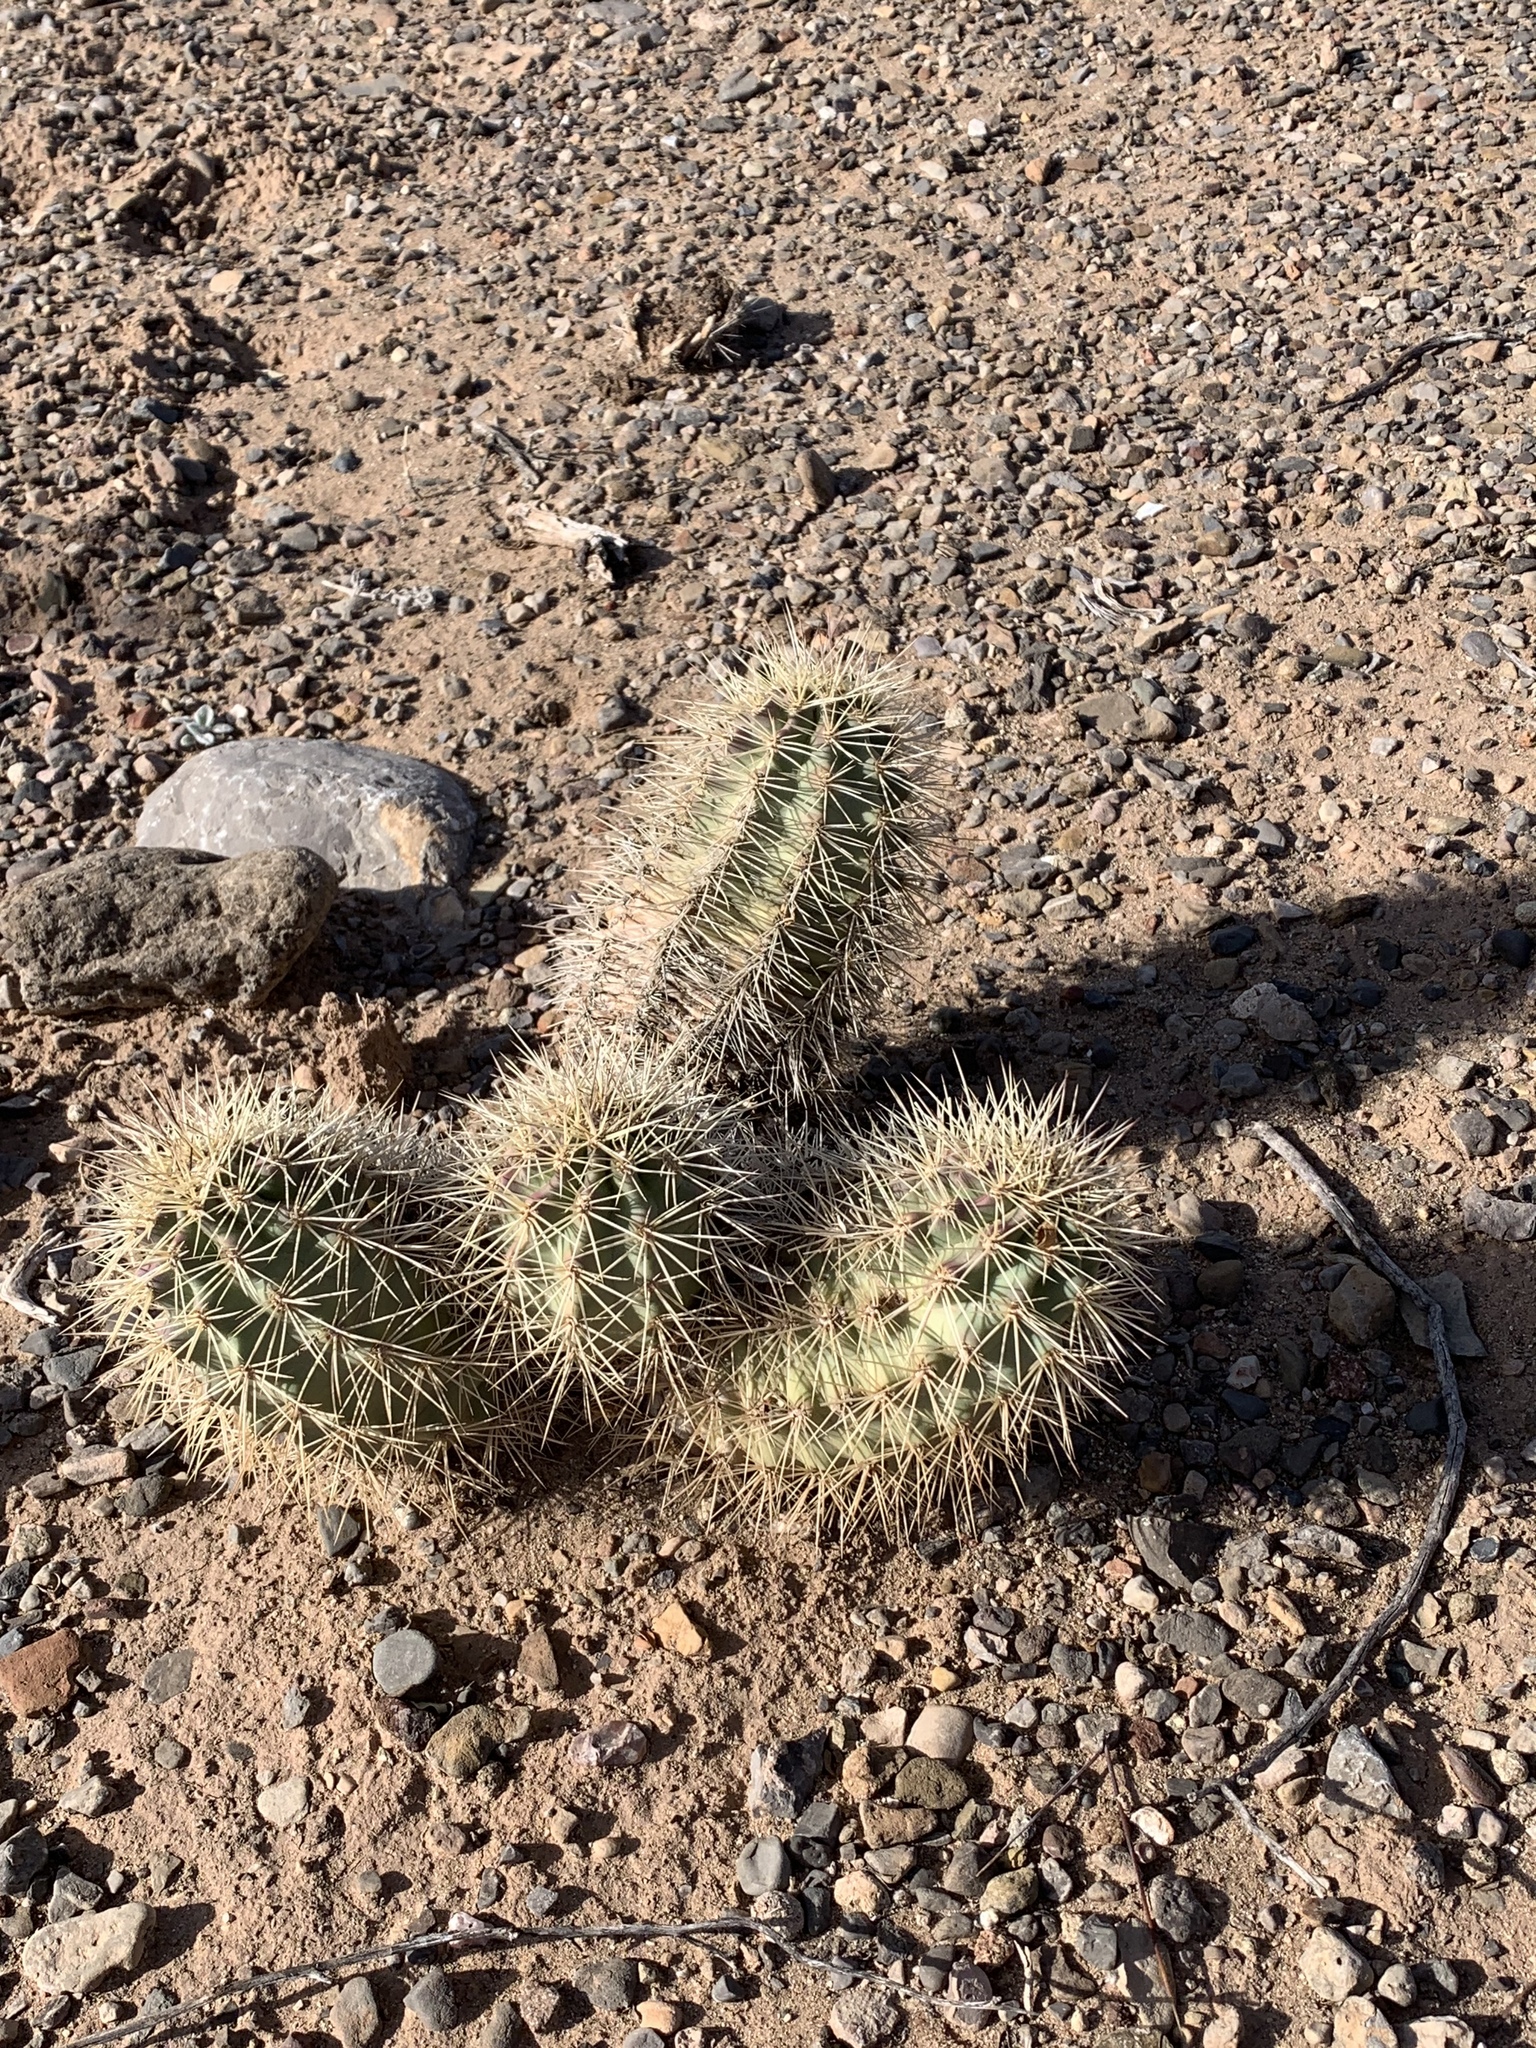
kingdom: Plantae
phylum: Tracheophyta
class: Magnoliopsida
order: Caryophyllales
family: Cactaceae
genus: Echinocereus
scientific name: Echinocereus coccineus
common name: Scarlet hedgehog cactus
